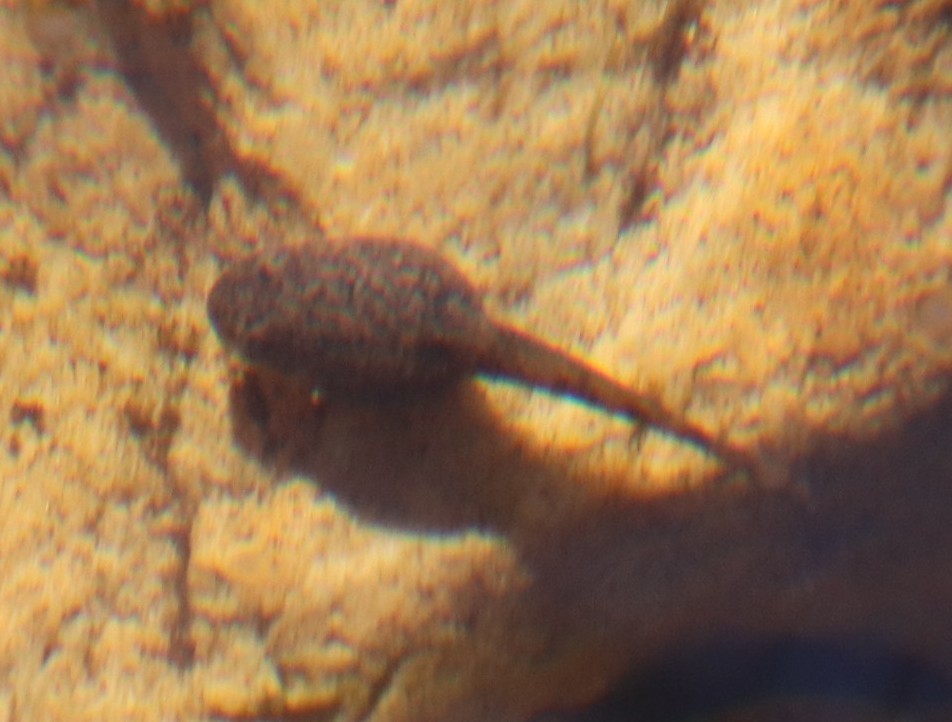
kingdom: Animalia
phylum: Chordata
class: Amphibia
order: Anura
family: Pyxicephalidae
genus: Amietia
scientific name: Amietia fuscigula
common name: Cape rana
